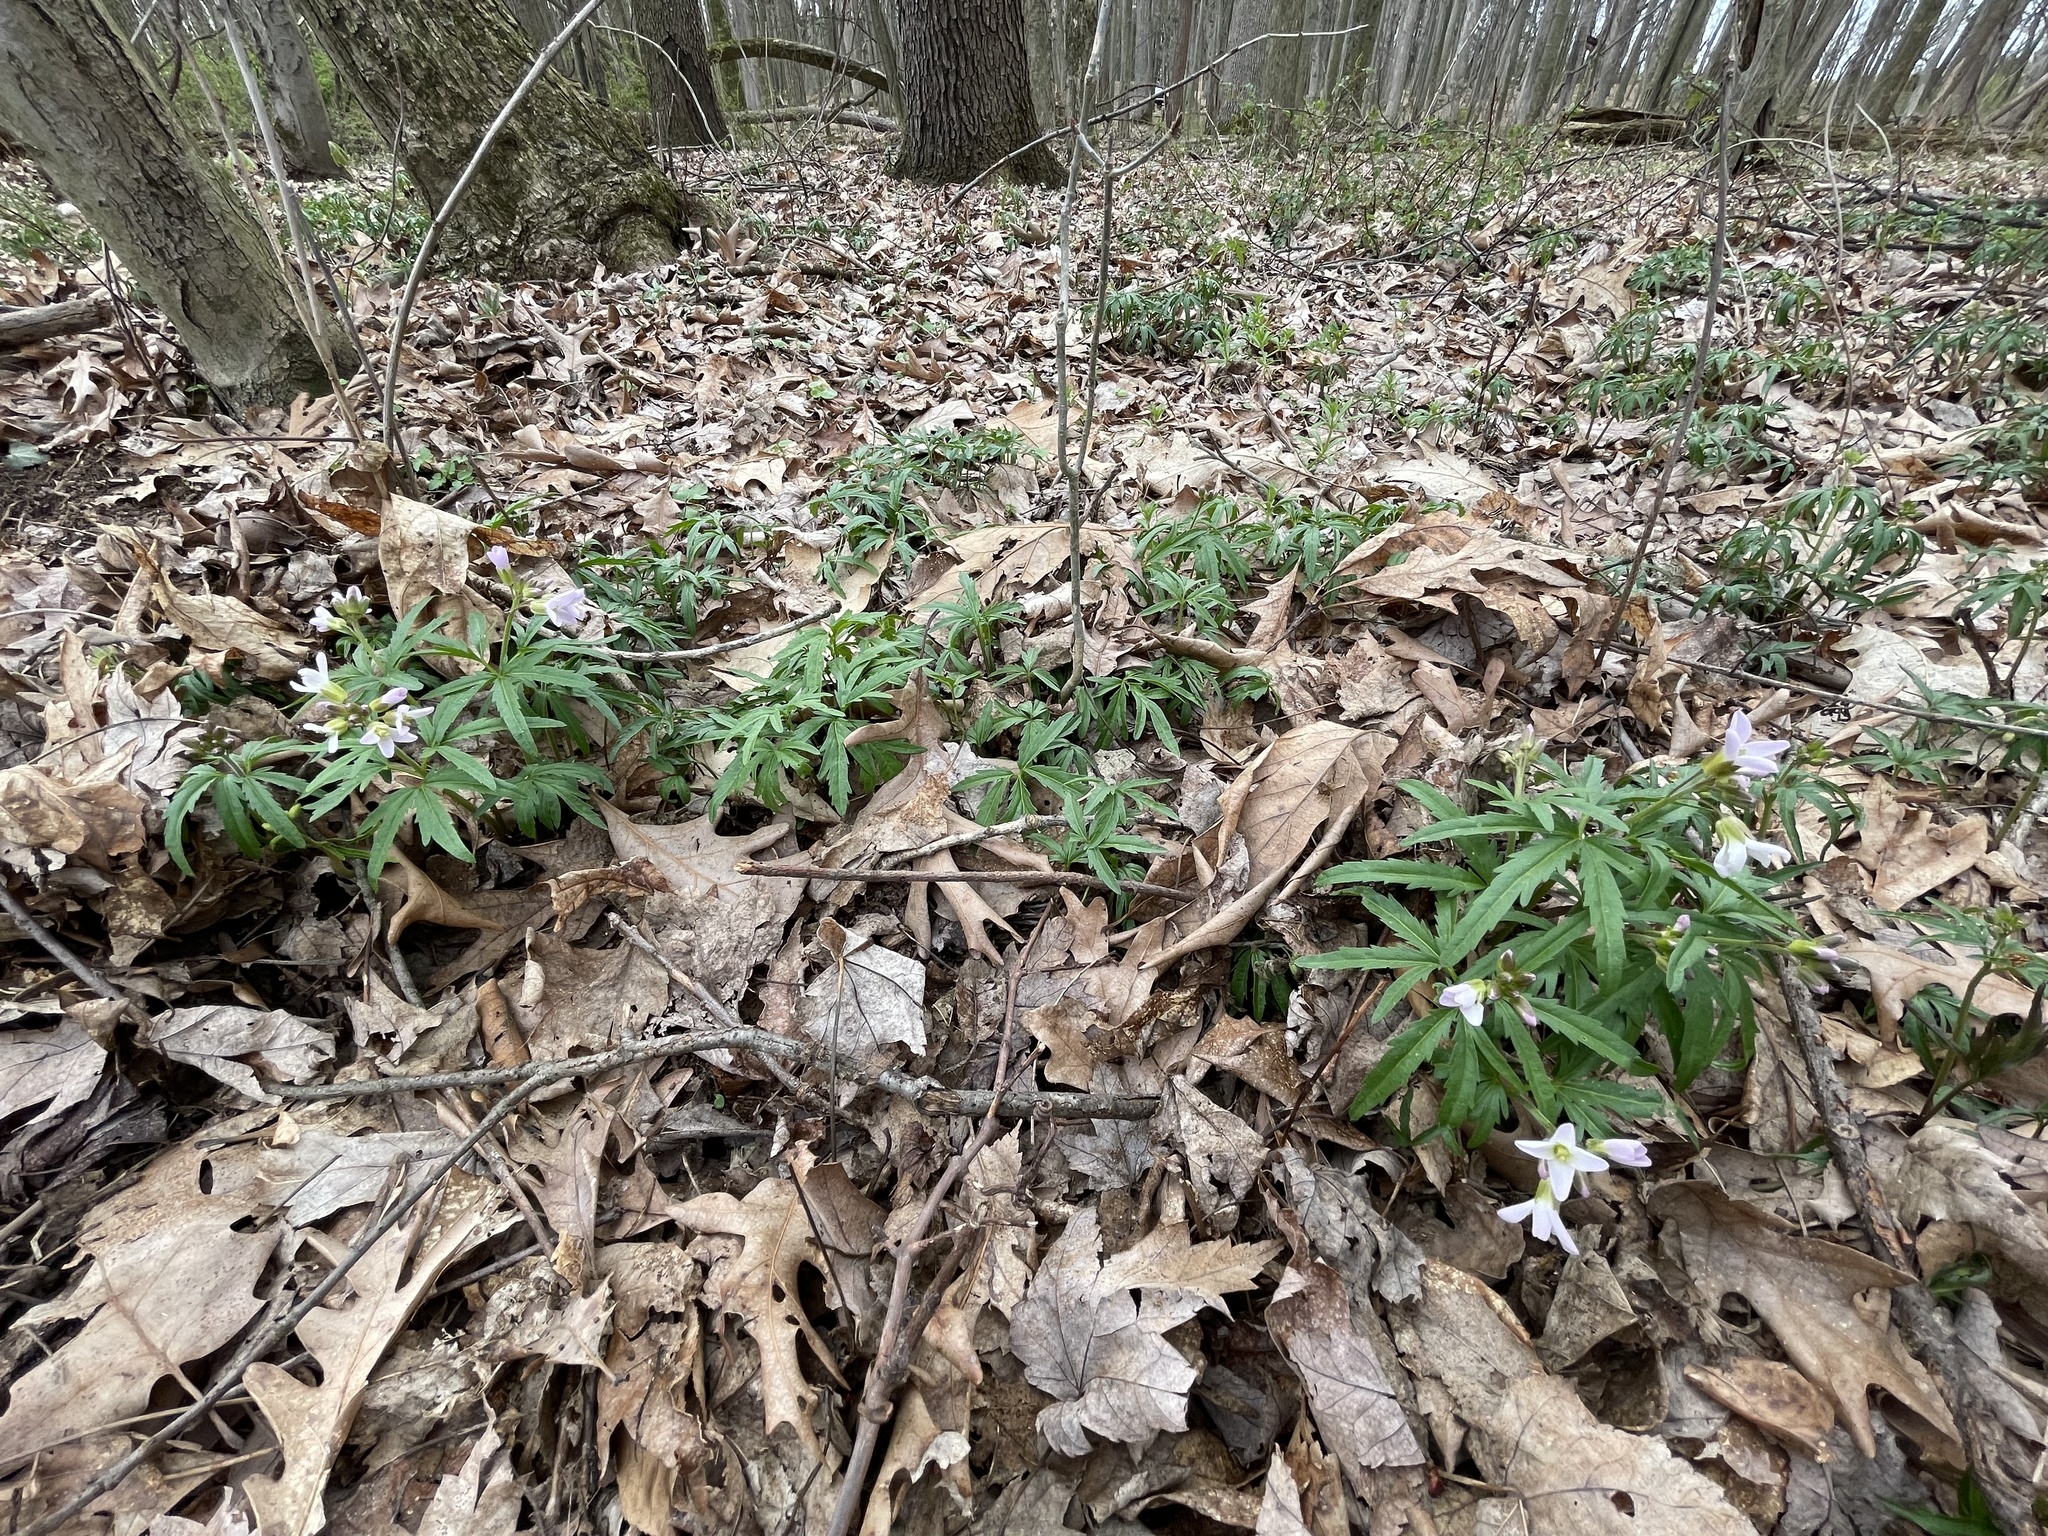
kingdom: Plantae
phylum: Tracheophyta
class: Magnoliopsida
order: Brassicales
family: Brassicaceae
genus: Cardamine
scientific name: Cardamine concatenata
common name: Cut-leaf toothcup
